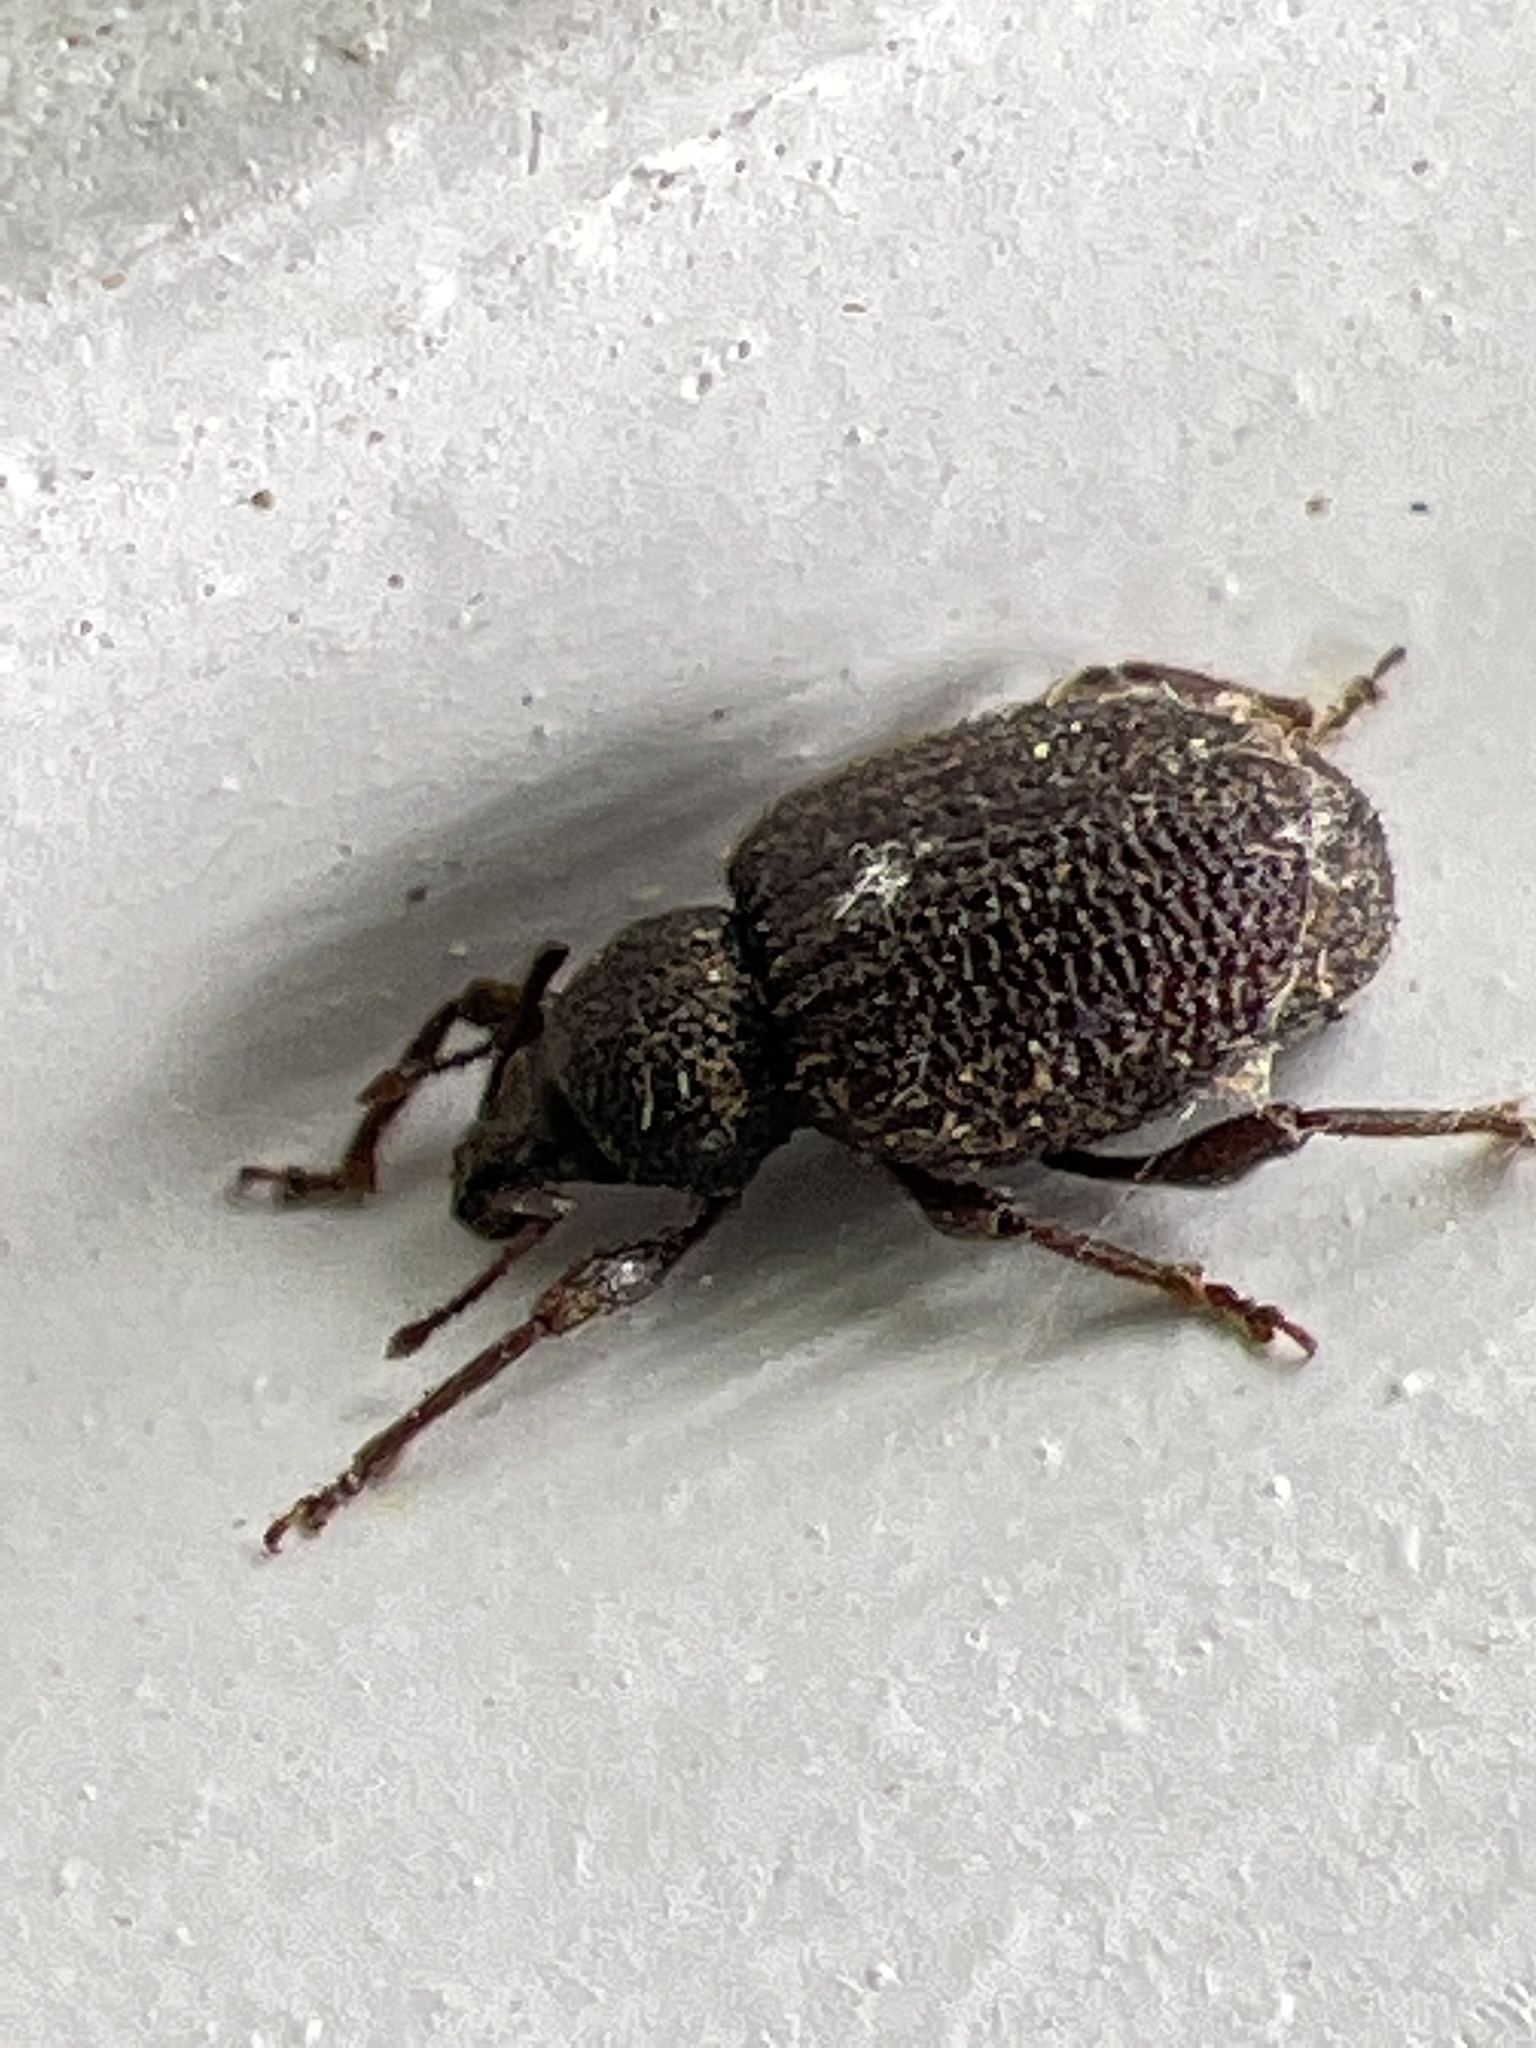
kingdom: Animalia
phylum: Arthropoda
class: Insecta
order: Coleoptera
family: Curculionidae
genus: Otiorhynchus
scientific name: Otiorhynchus rugosostriatus
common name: Weevil
